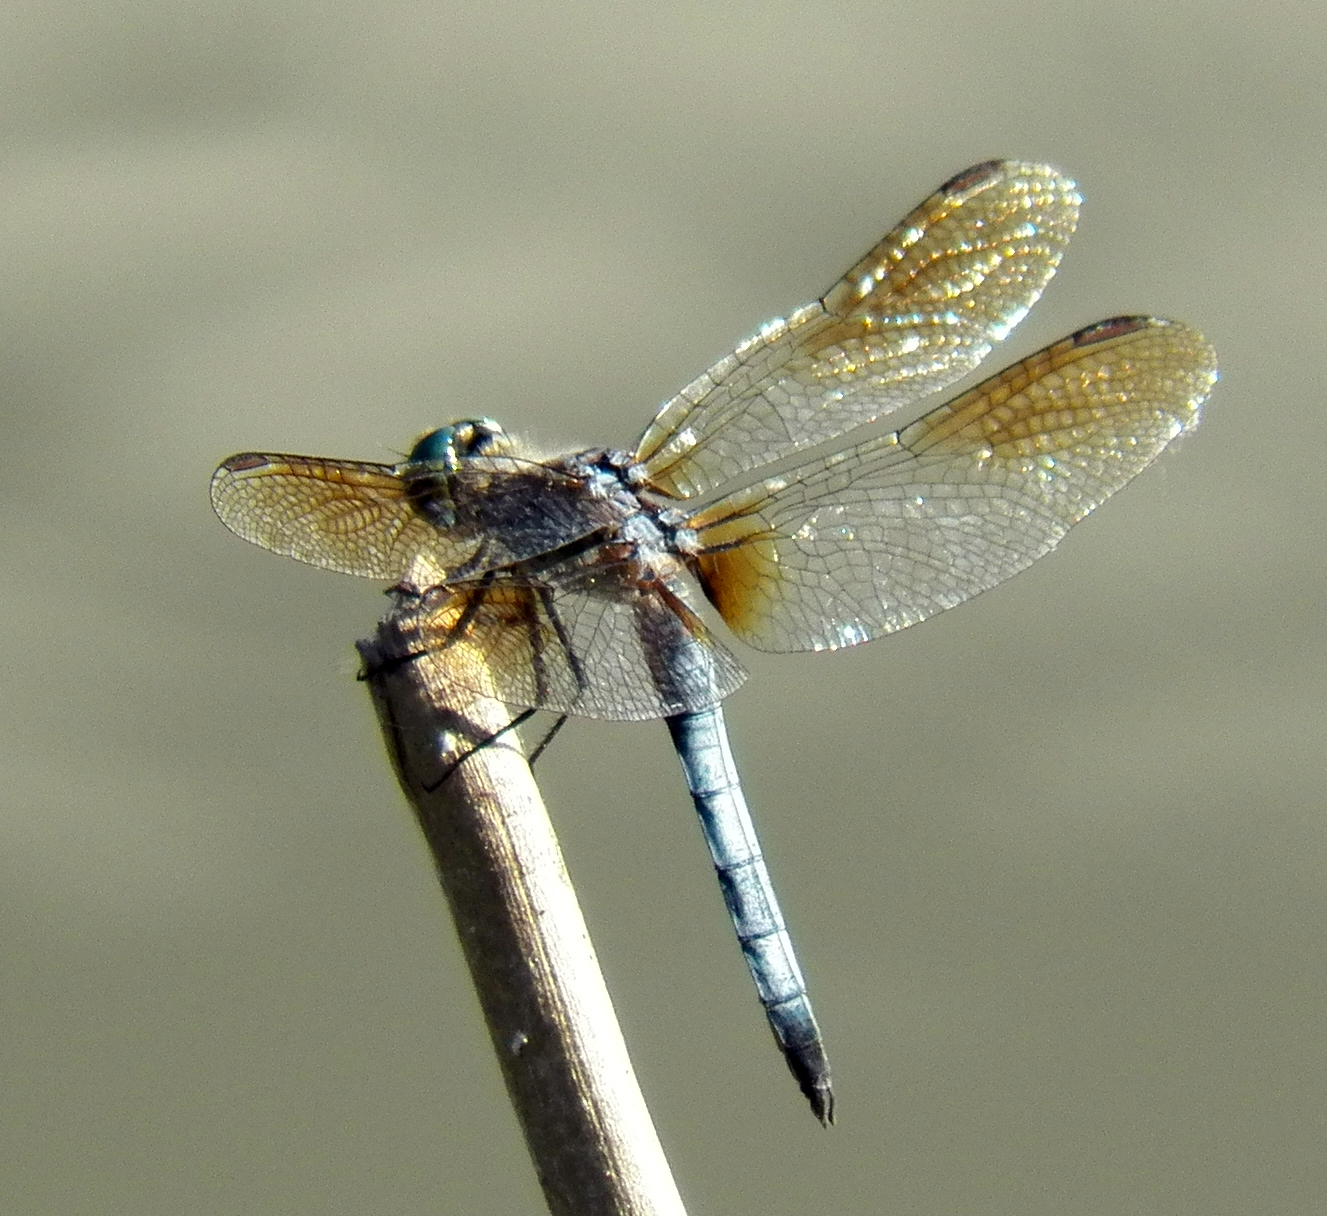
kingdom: Animalia
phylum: Arthropoda
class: Insecta
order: Odonata
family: Libellulidae
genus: Pachydiplax
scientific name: Pachydiplax longipennis
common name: Blue dasher
